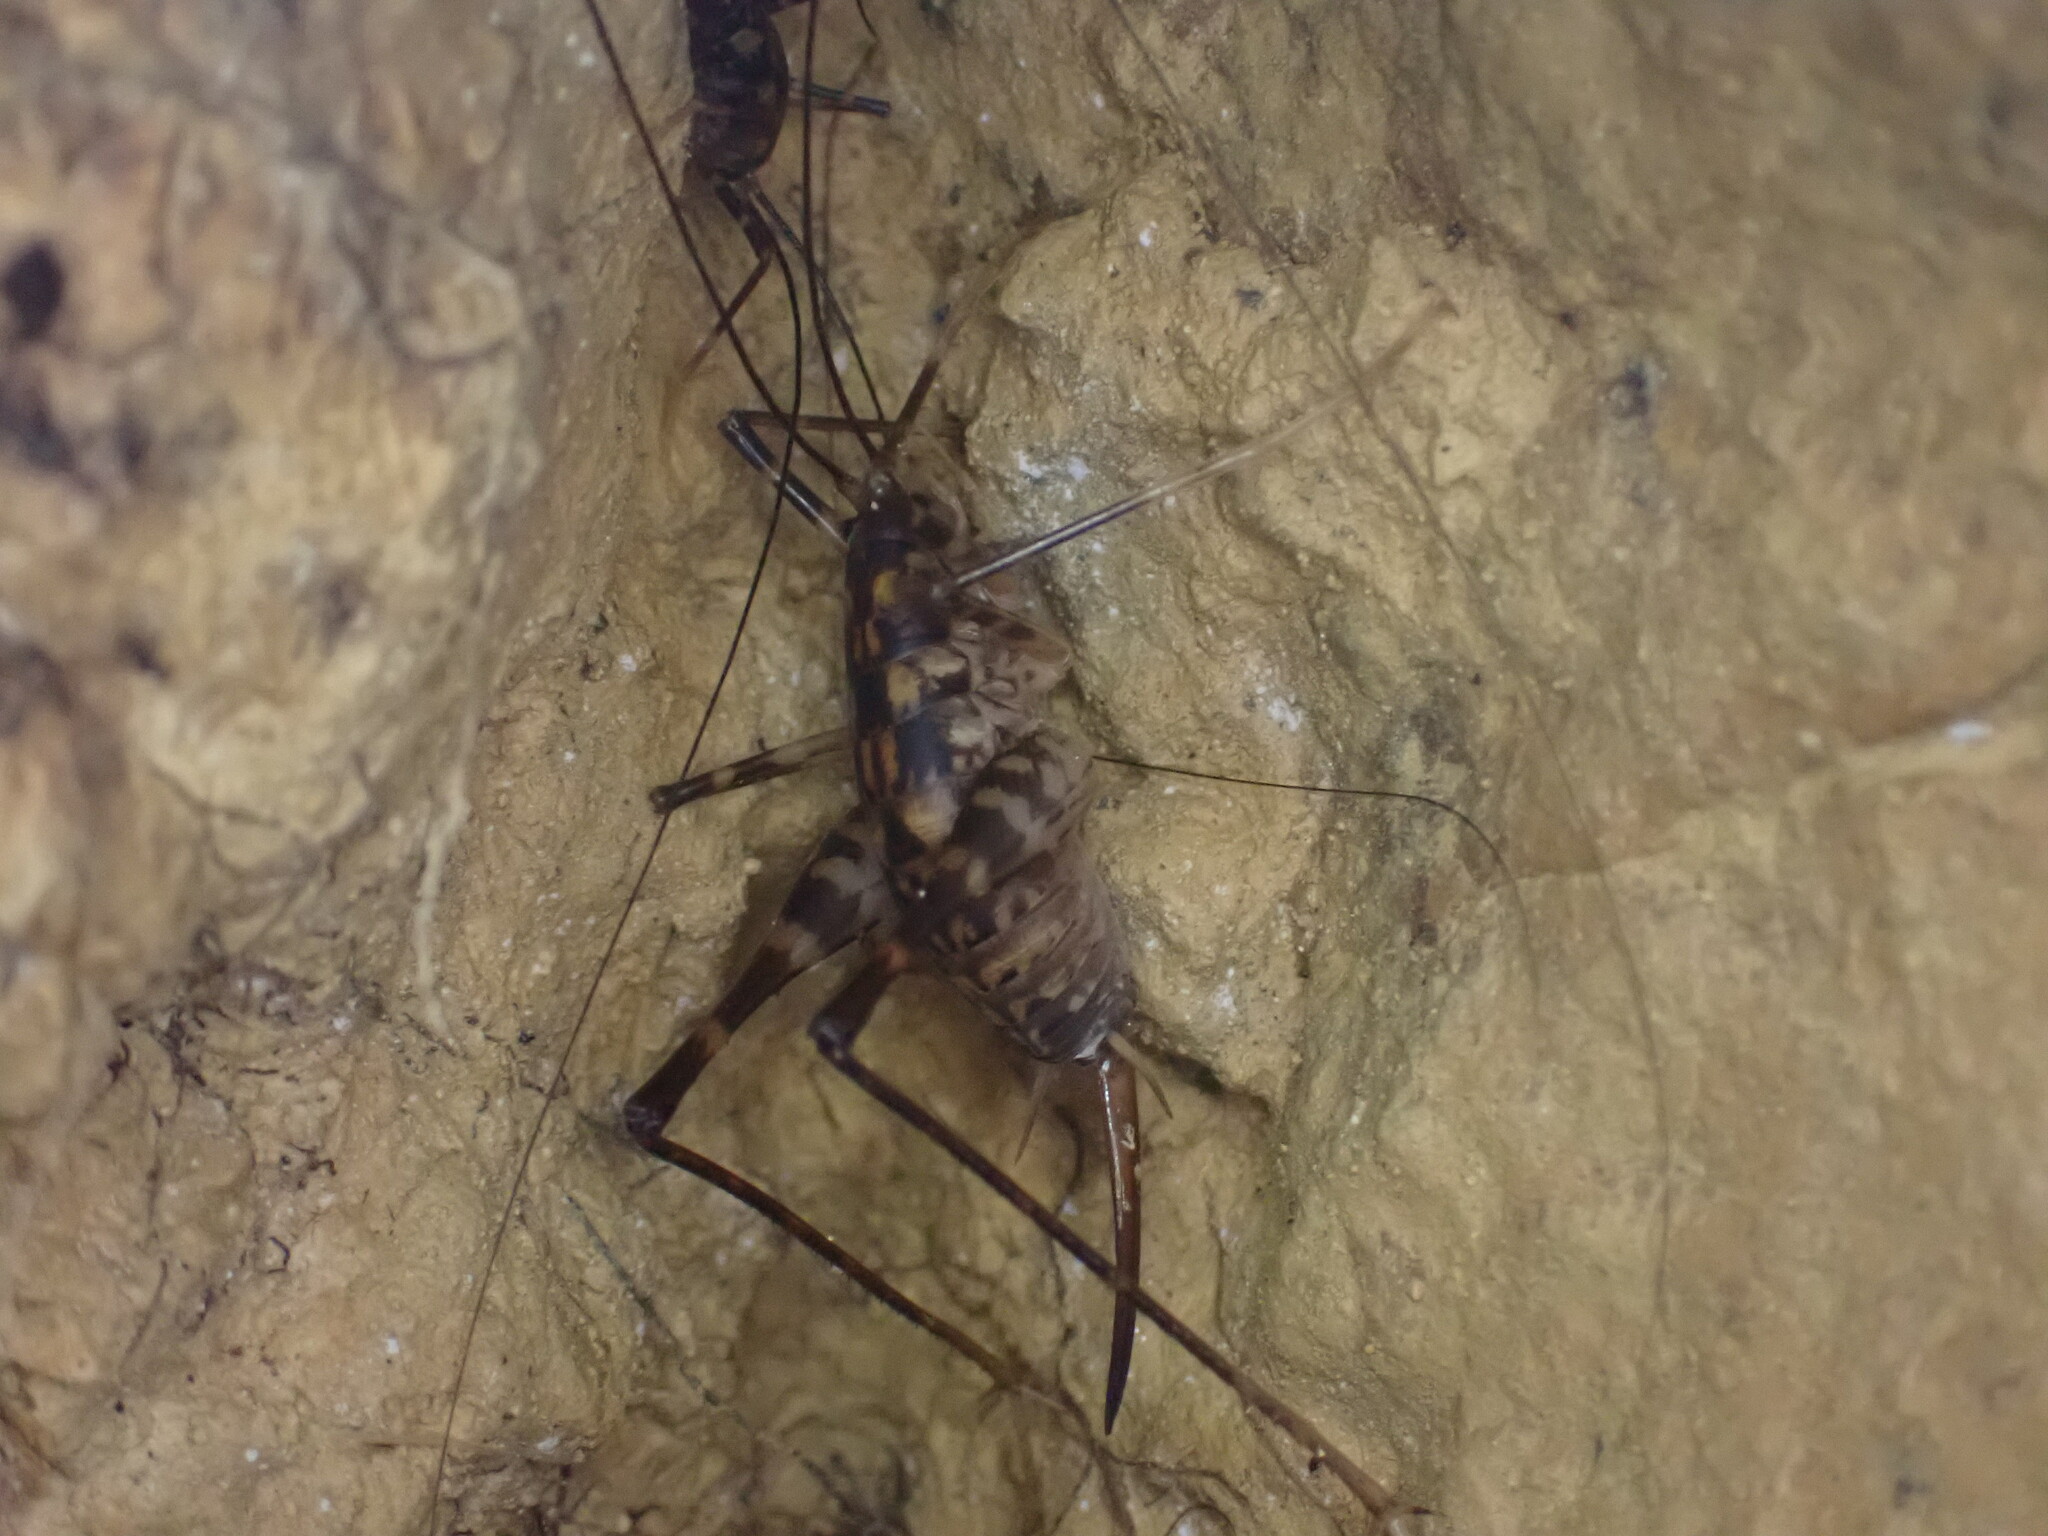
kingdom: Animalia
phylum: Arthropoda
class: Insecta
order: Orthoptera
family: Rhaphidophoridae
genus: Pachyrhamma
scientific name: Pachyrhamma uncata
